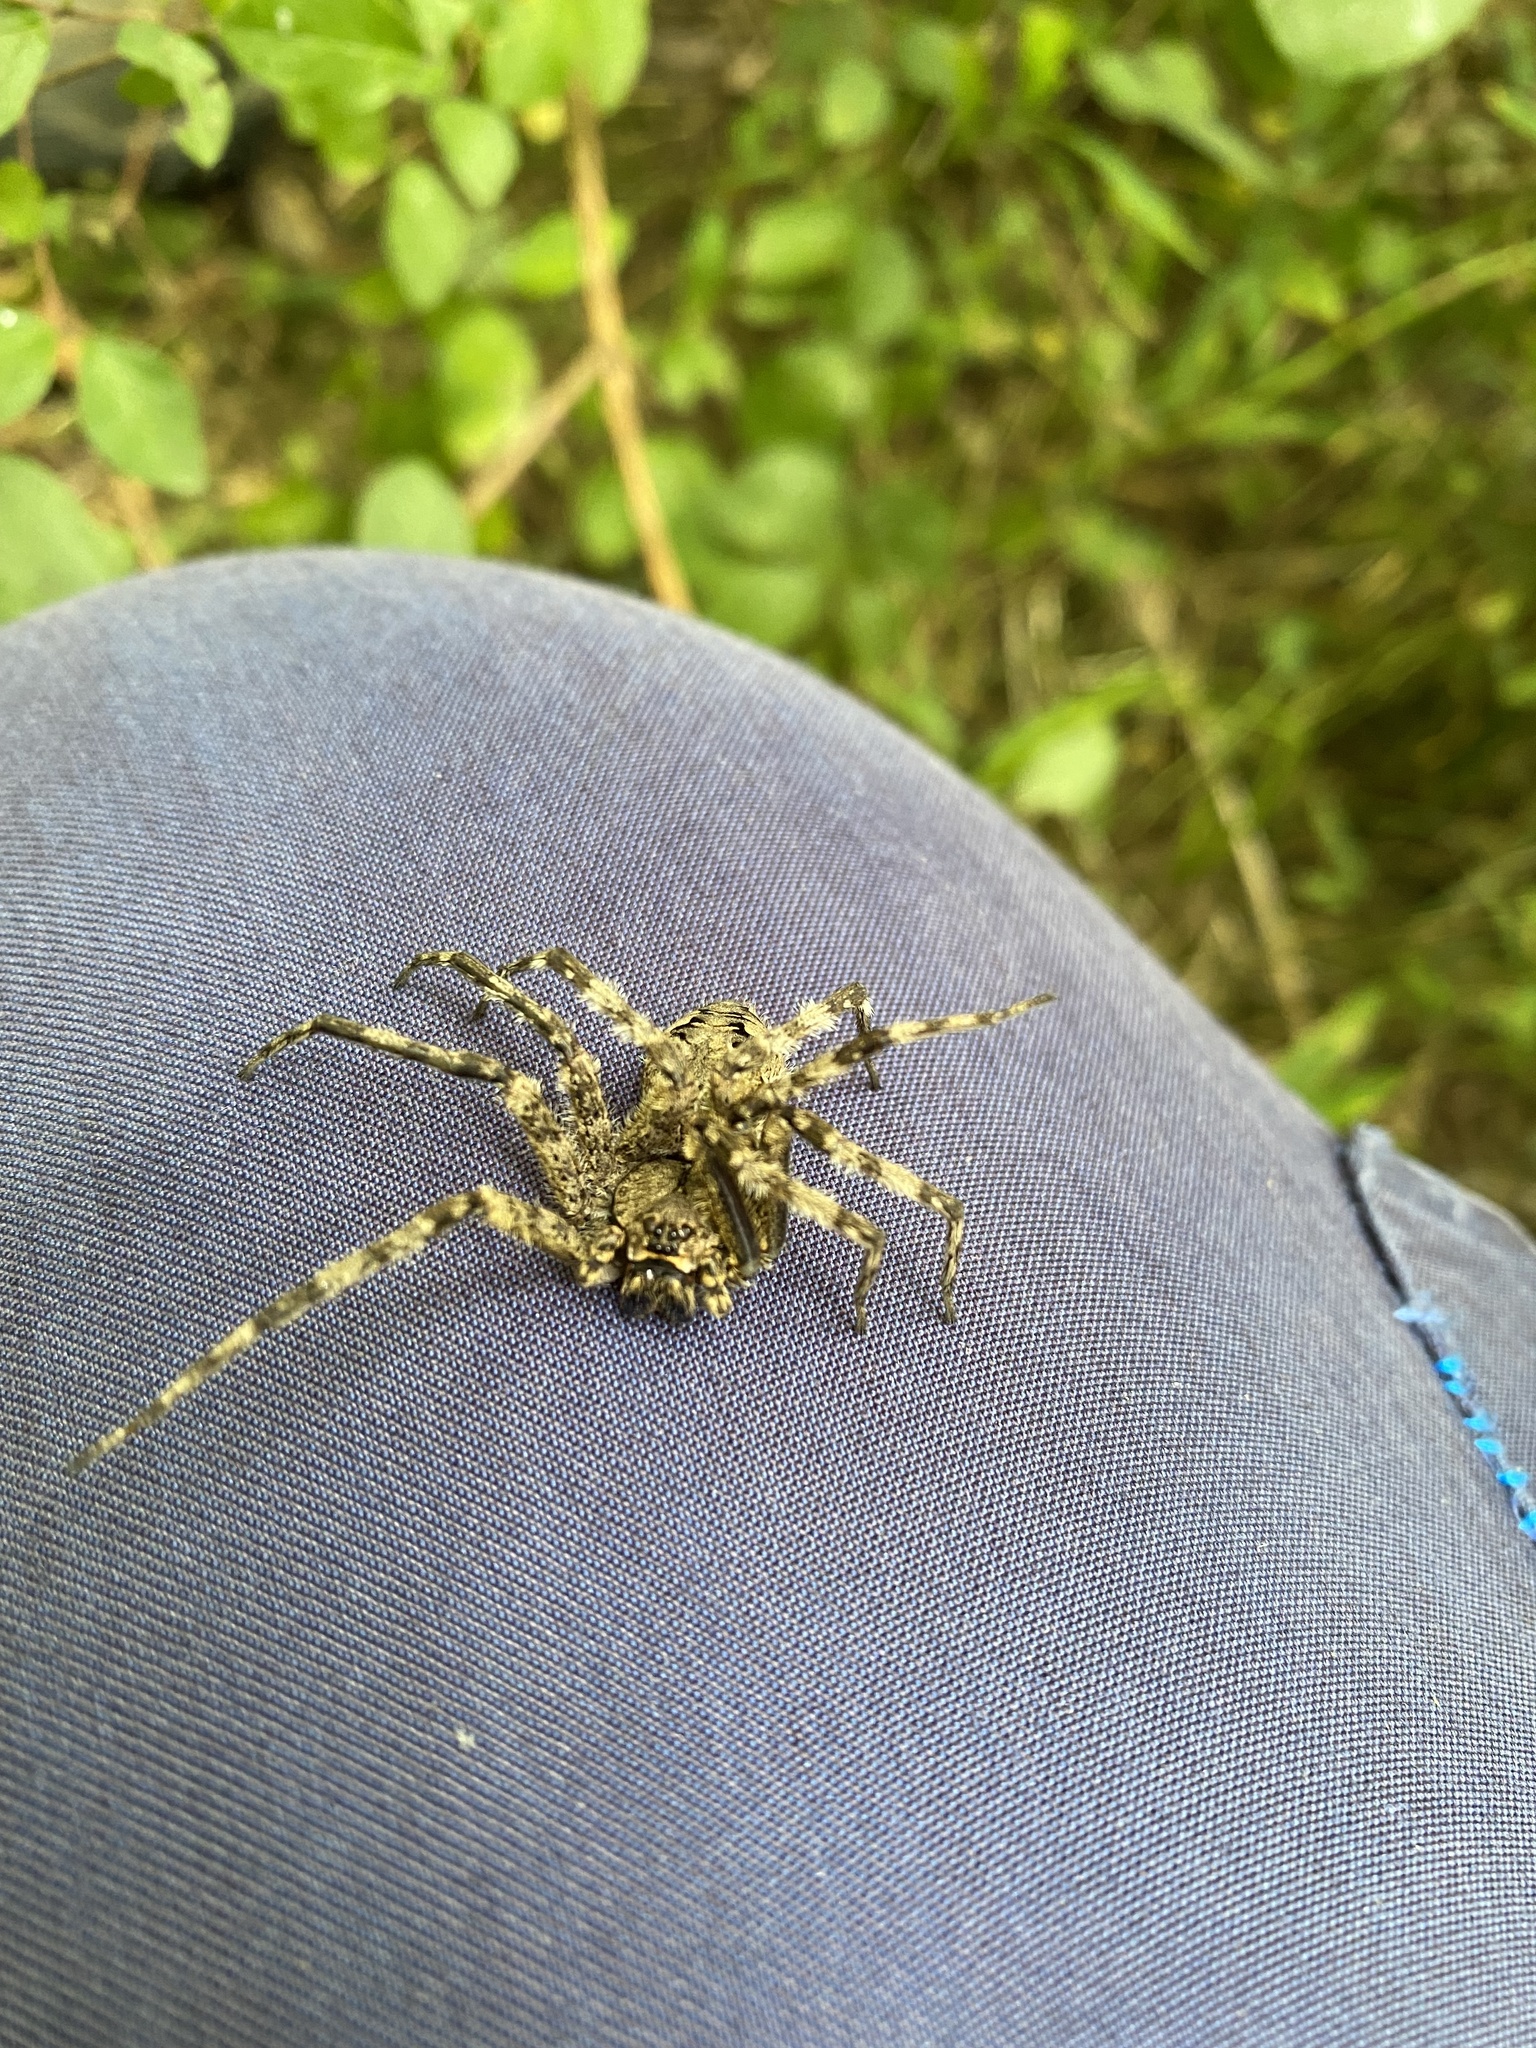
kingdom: Animalia
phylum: Arthropoda
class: Arachnida
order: Araneae
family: Pisauridae
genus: Dolomedes
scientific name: Dolomedes albineus
